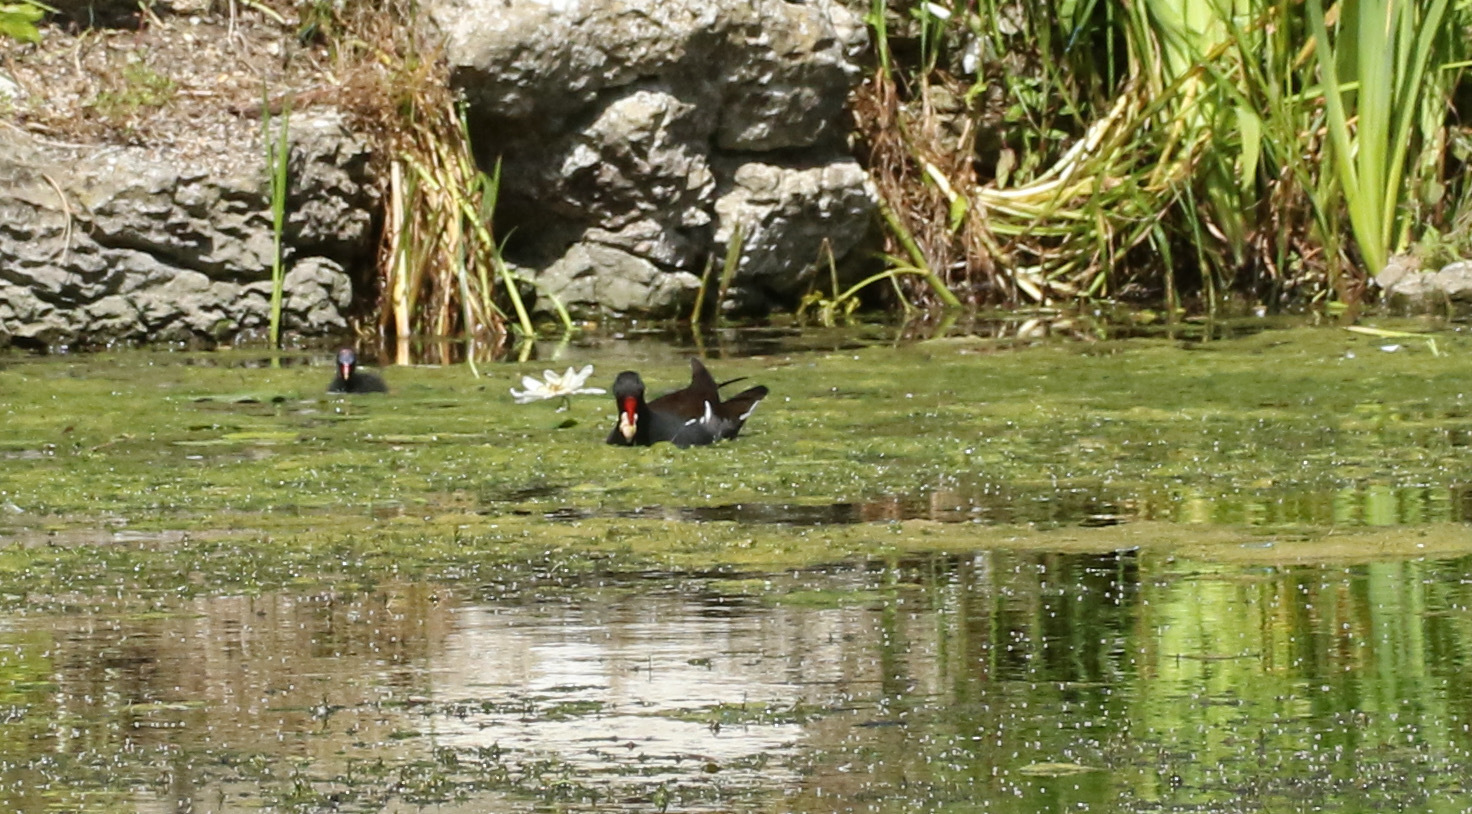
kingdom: Animalia
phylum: Chordata
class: Aves
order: Gruiformes
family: Rallidae
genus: Gallinula
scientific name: Gallinula chloropus
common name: Common moorhen
